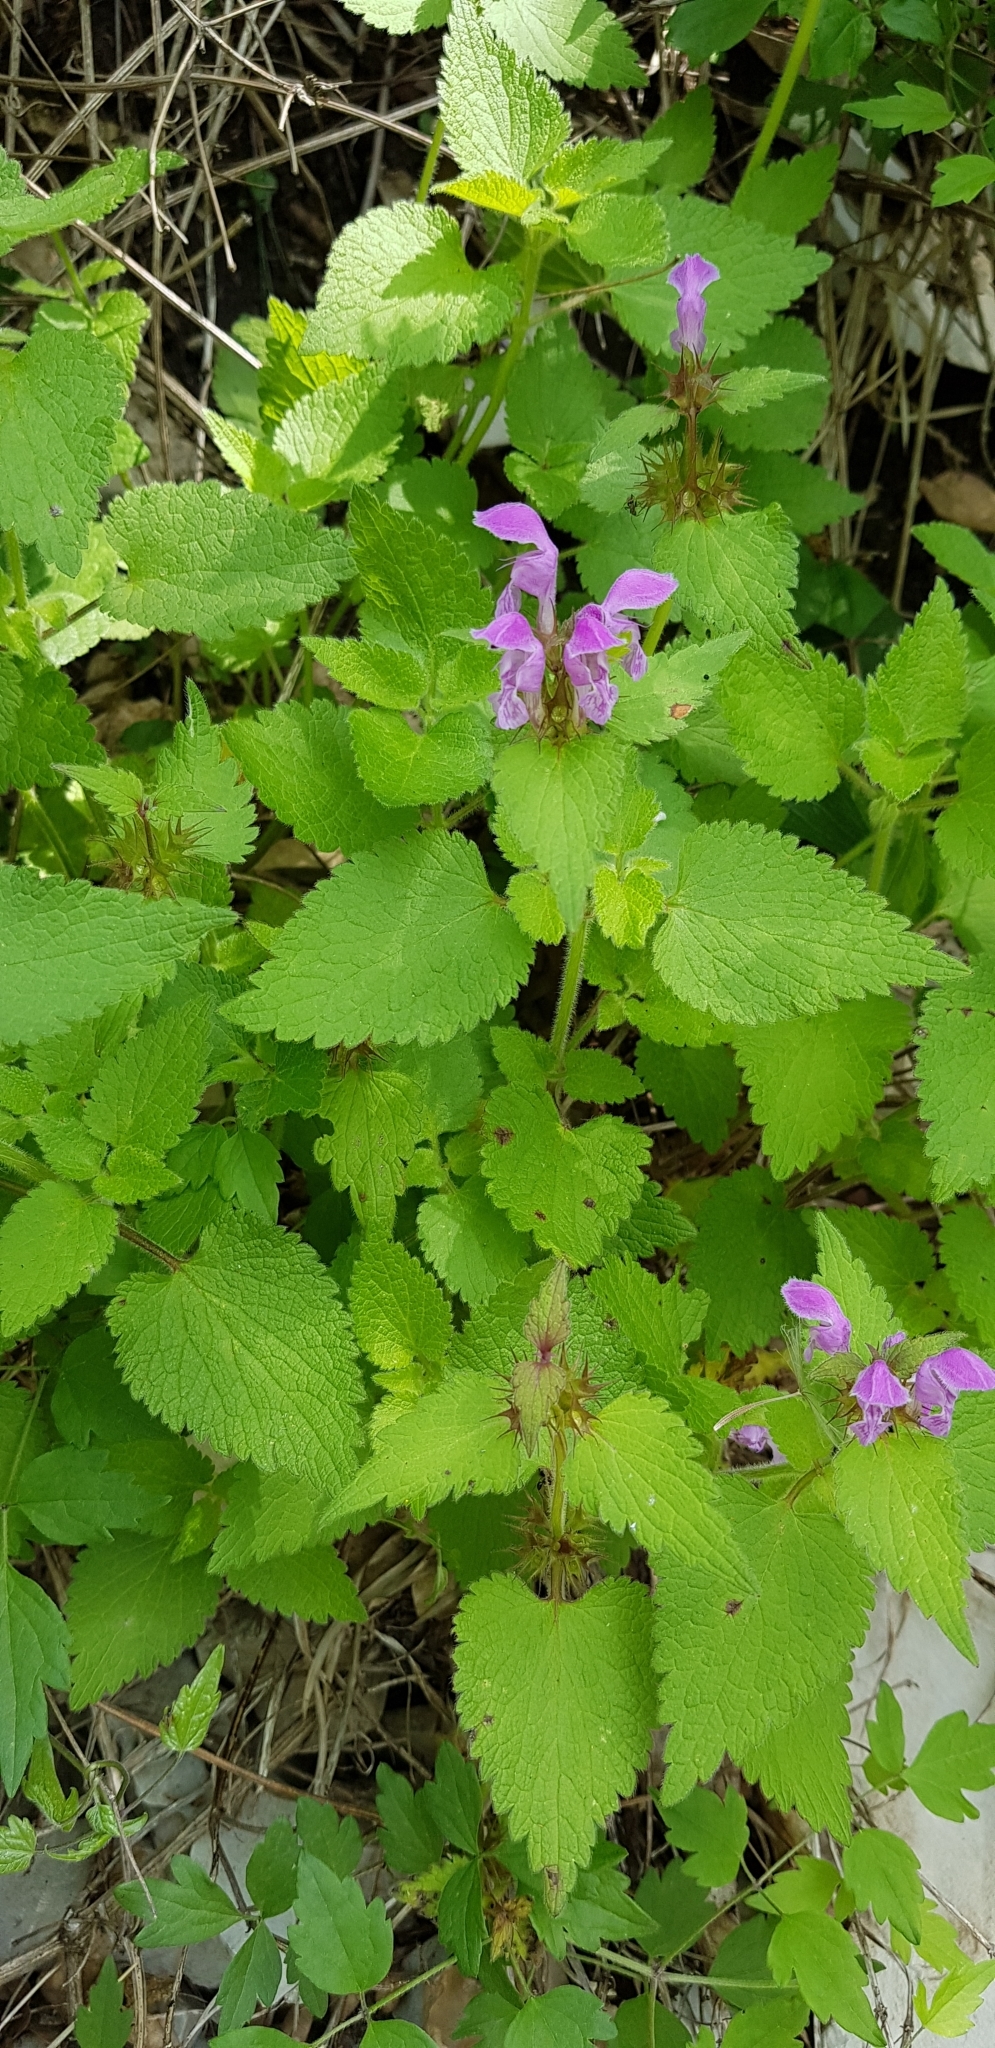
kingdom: Plantae
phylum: Tracheophyta
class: Magnoliopsida
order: Lamiales
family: Lamiaceae
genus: Lamium
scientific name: Lamium maculatum
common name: Spotted dead-nettle
